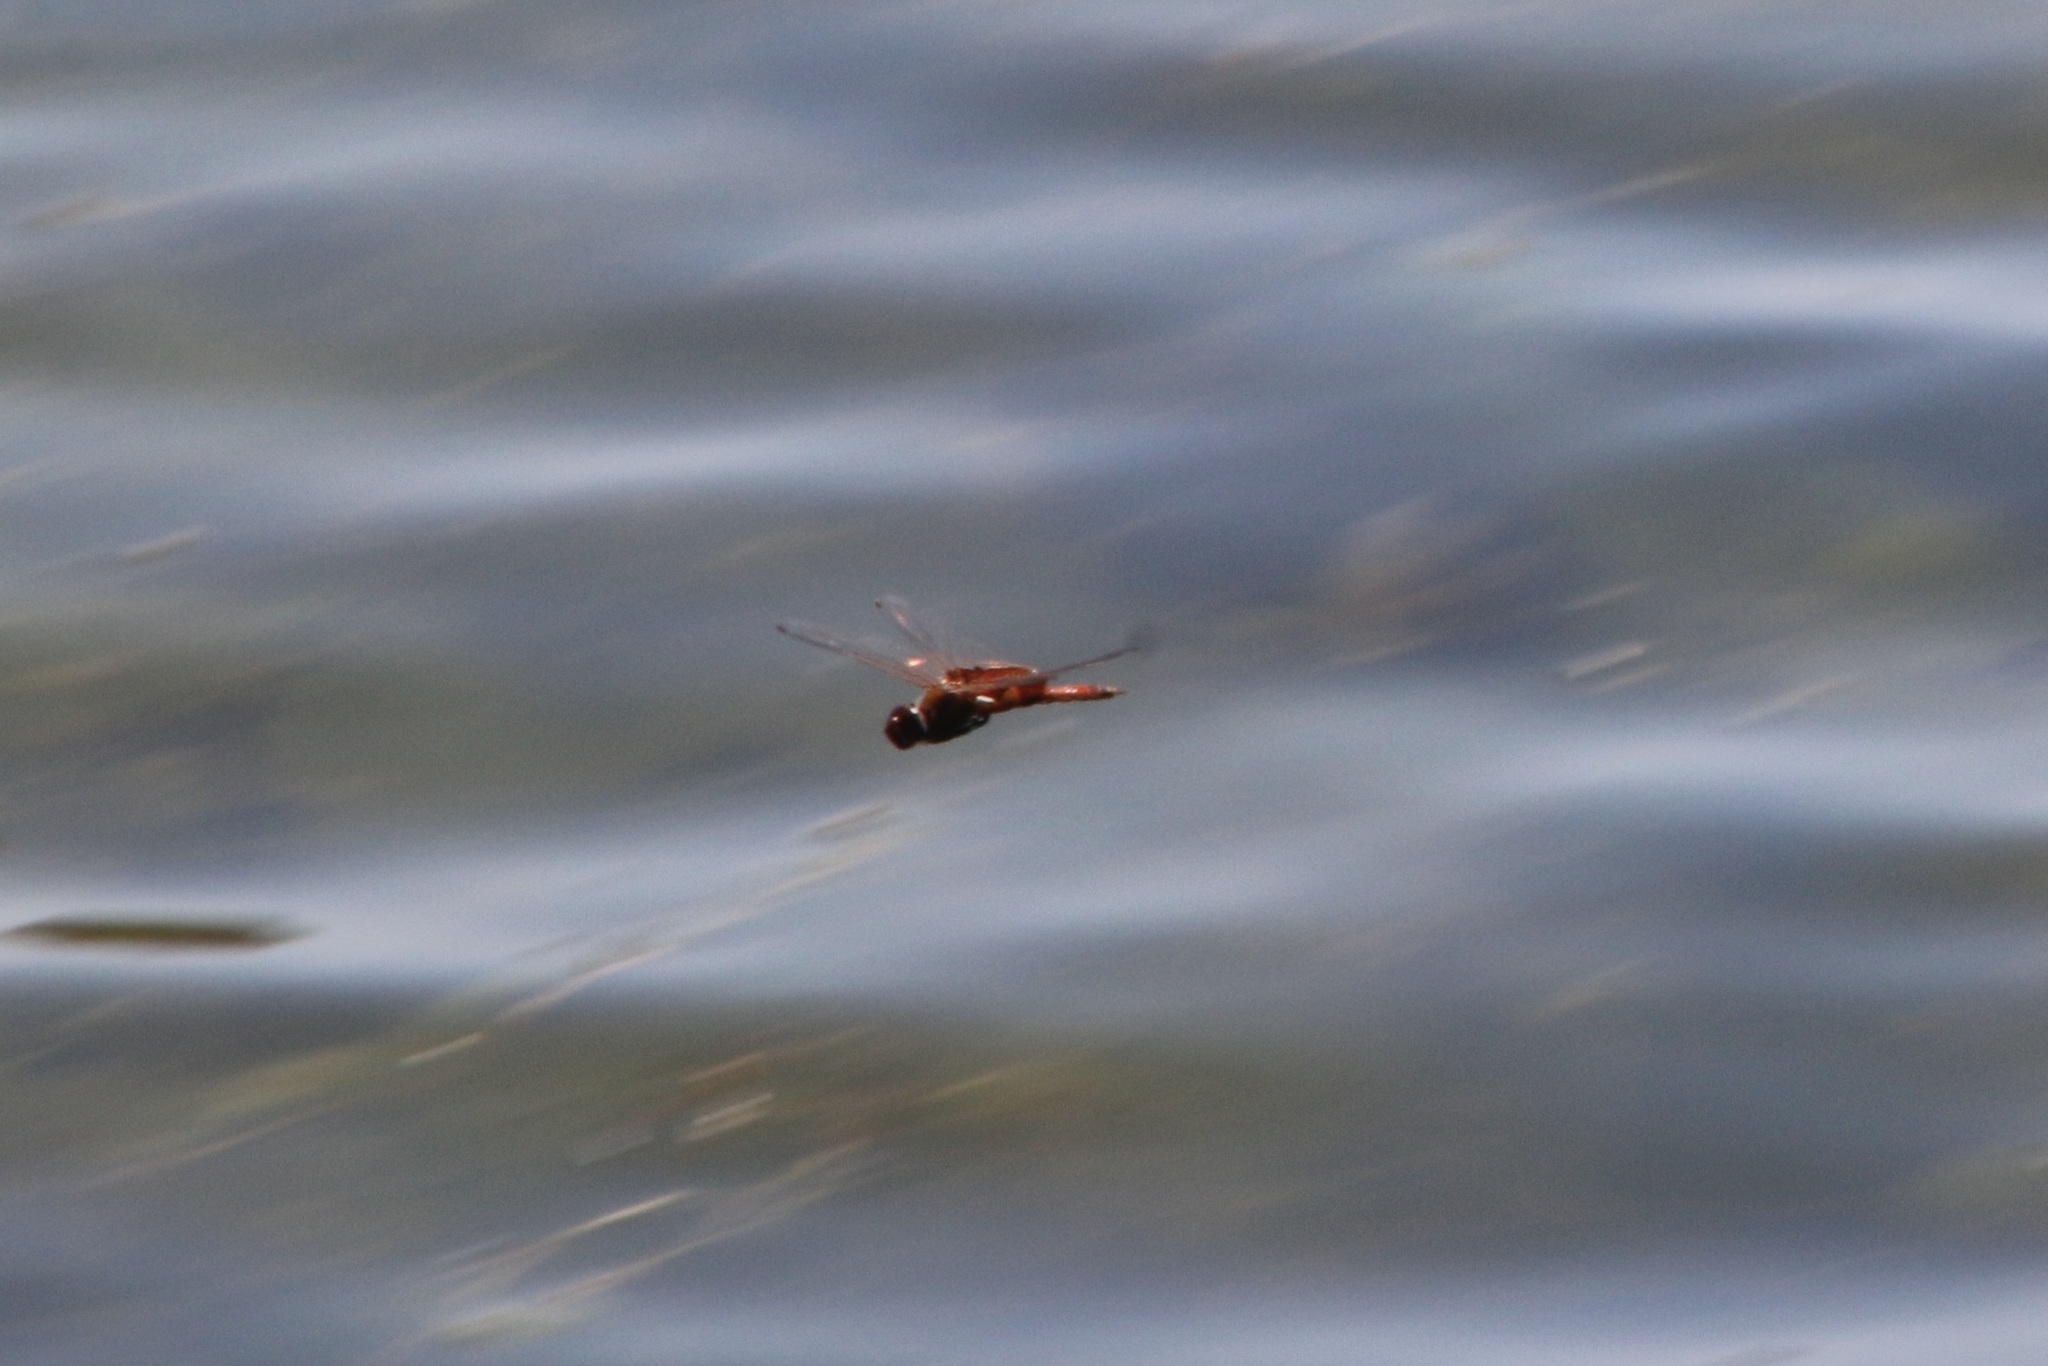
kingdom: Animalia
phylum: Arthropoda
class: Insecta
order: Odonata
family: Libellulidae
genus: Tramea
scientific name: Tramea onusta
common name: Red saddlebags
